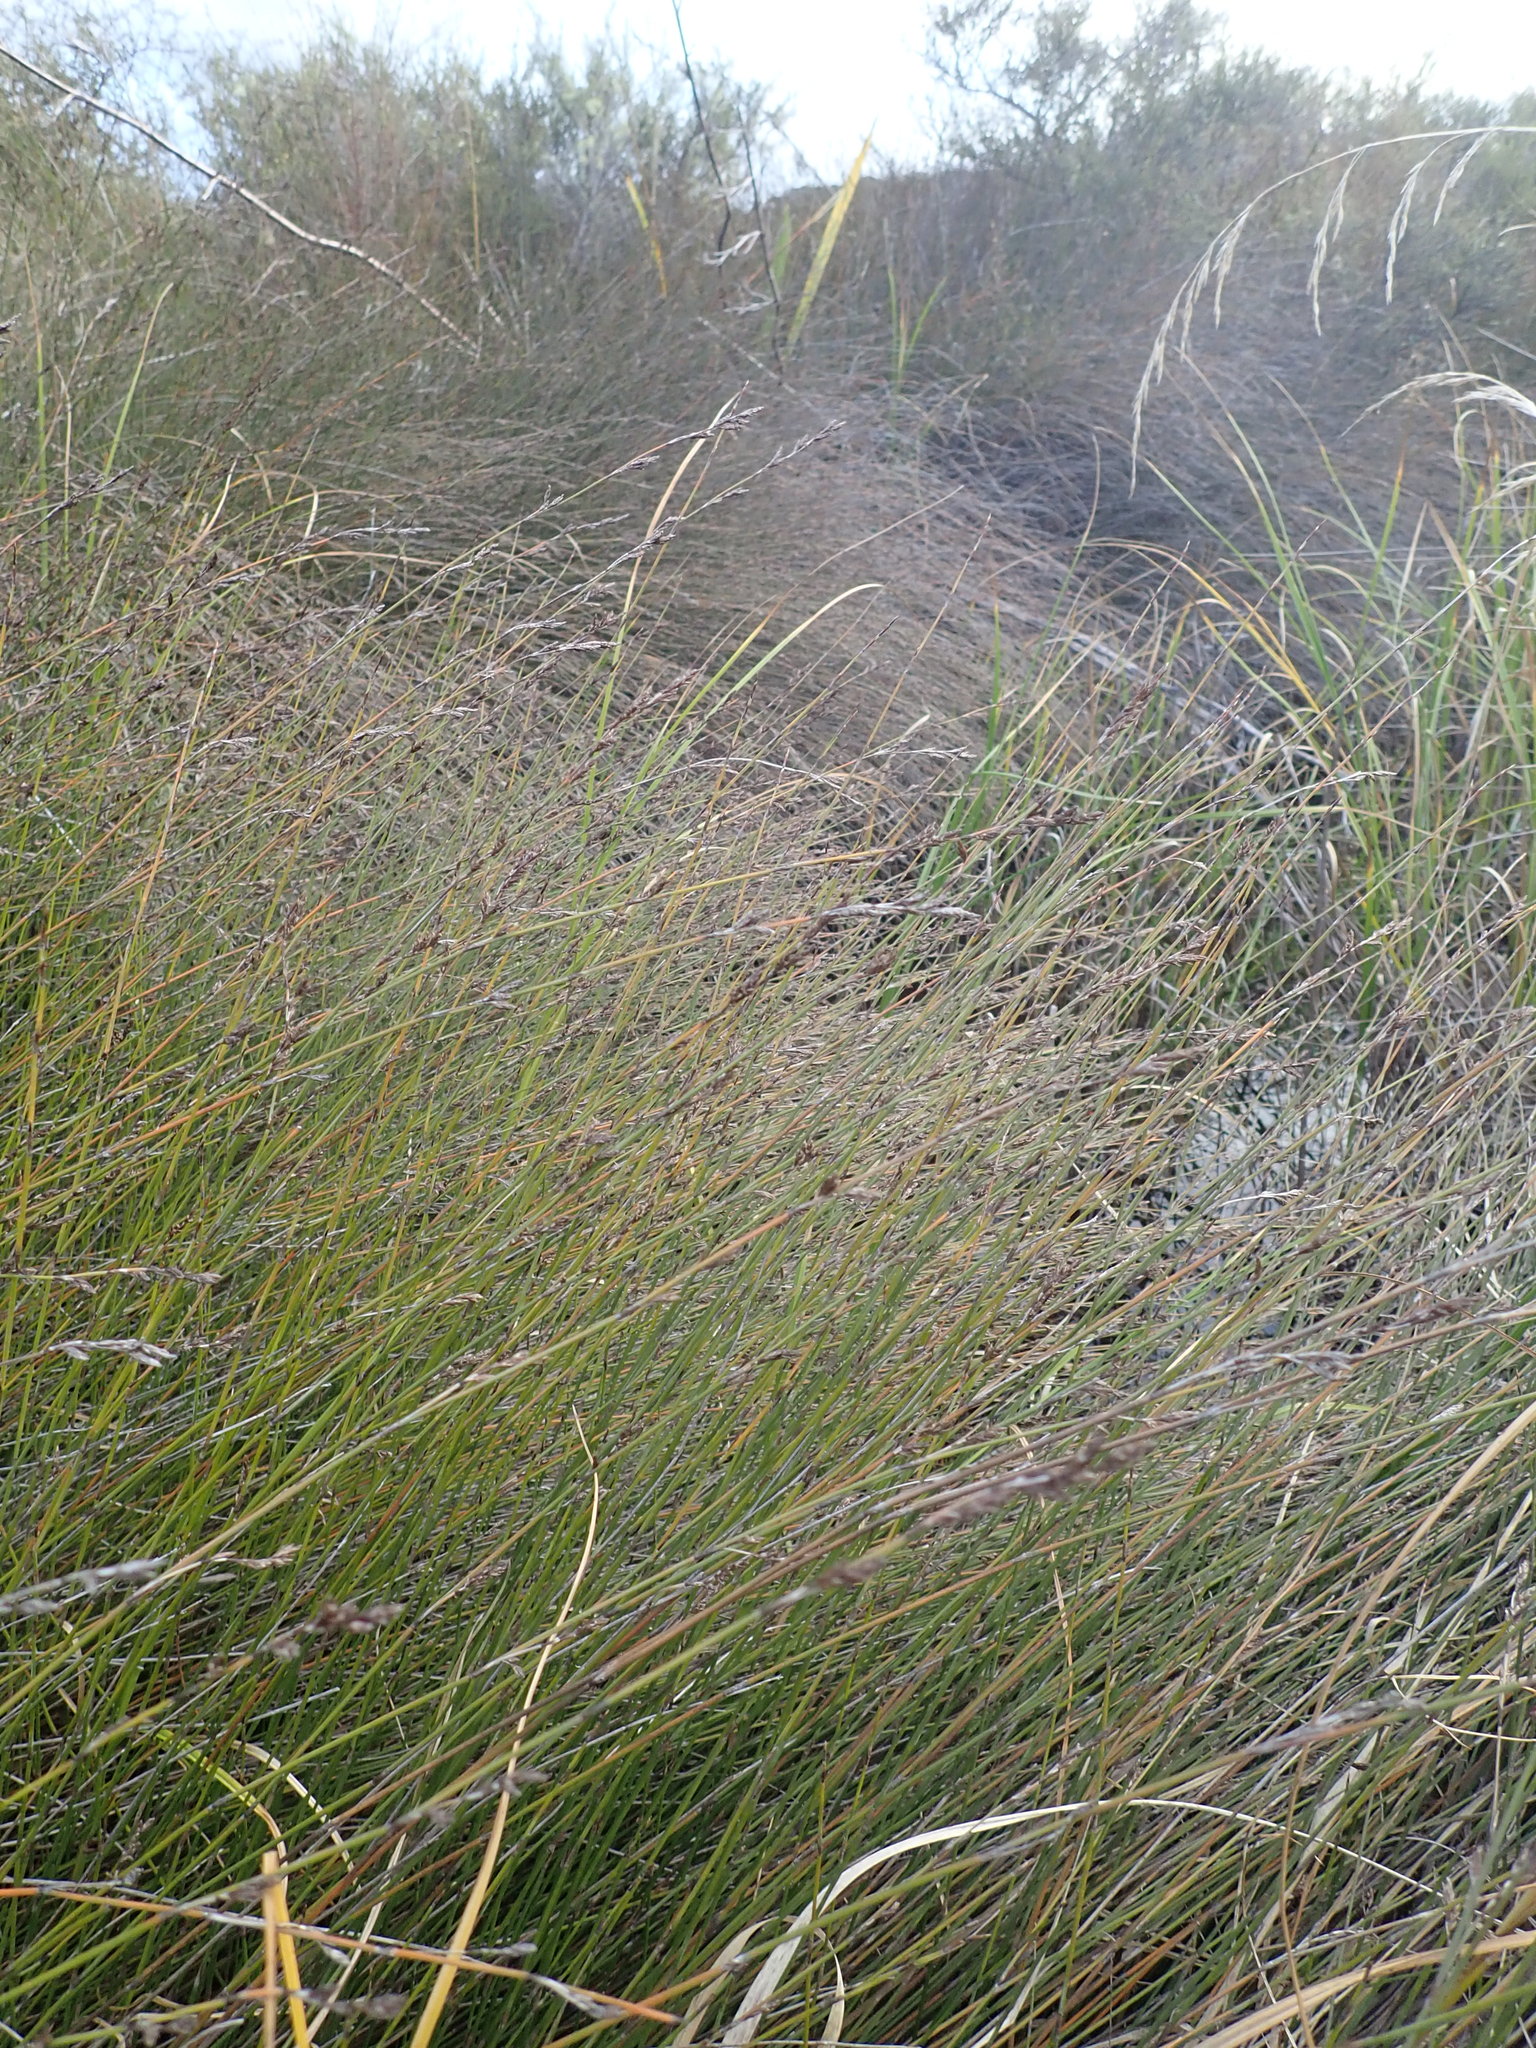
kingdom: Plantae
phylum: Tracheophyta
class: Liliopsida
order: Poales
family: Restionaceae
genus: Apodasmia
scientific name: Apodasmia similis
